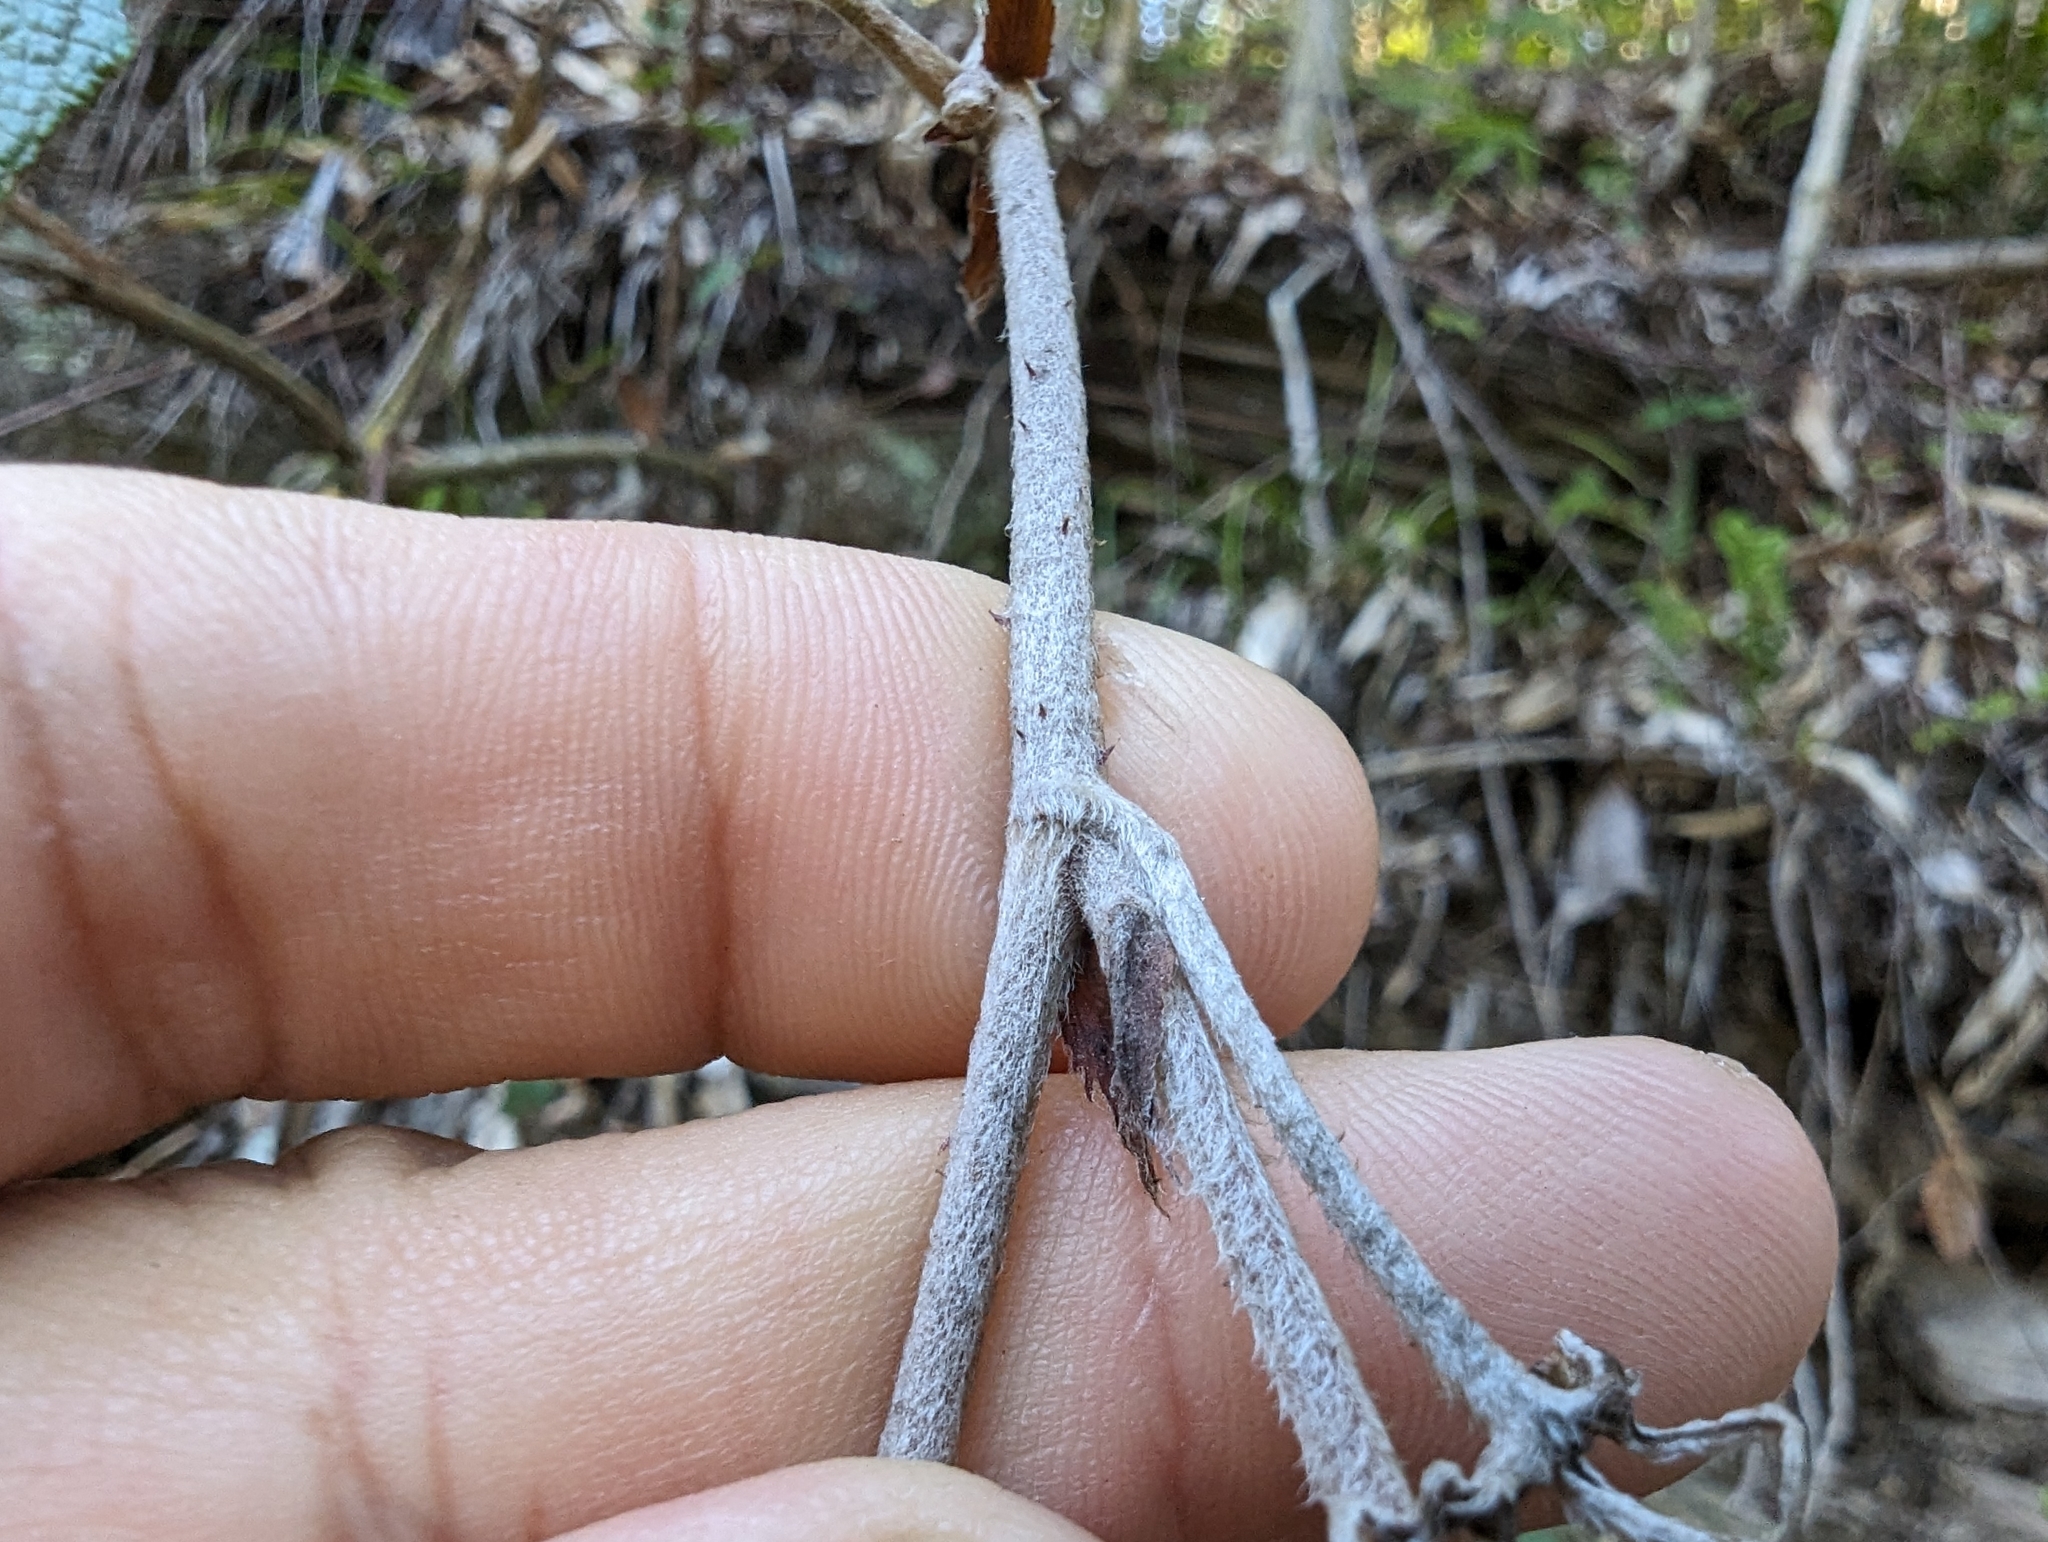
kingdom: Plantae
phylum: Tracheophyta
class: Magnoliopsida
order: Rosales
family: Rosaceae
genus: Rubus
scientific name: Rubus formosensis
